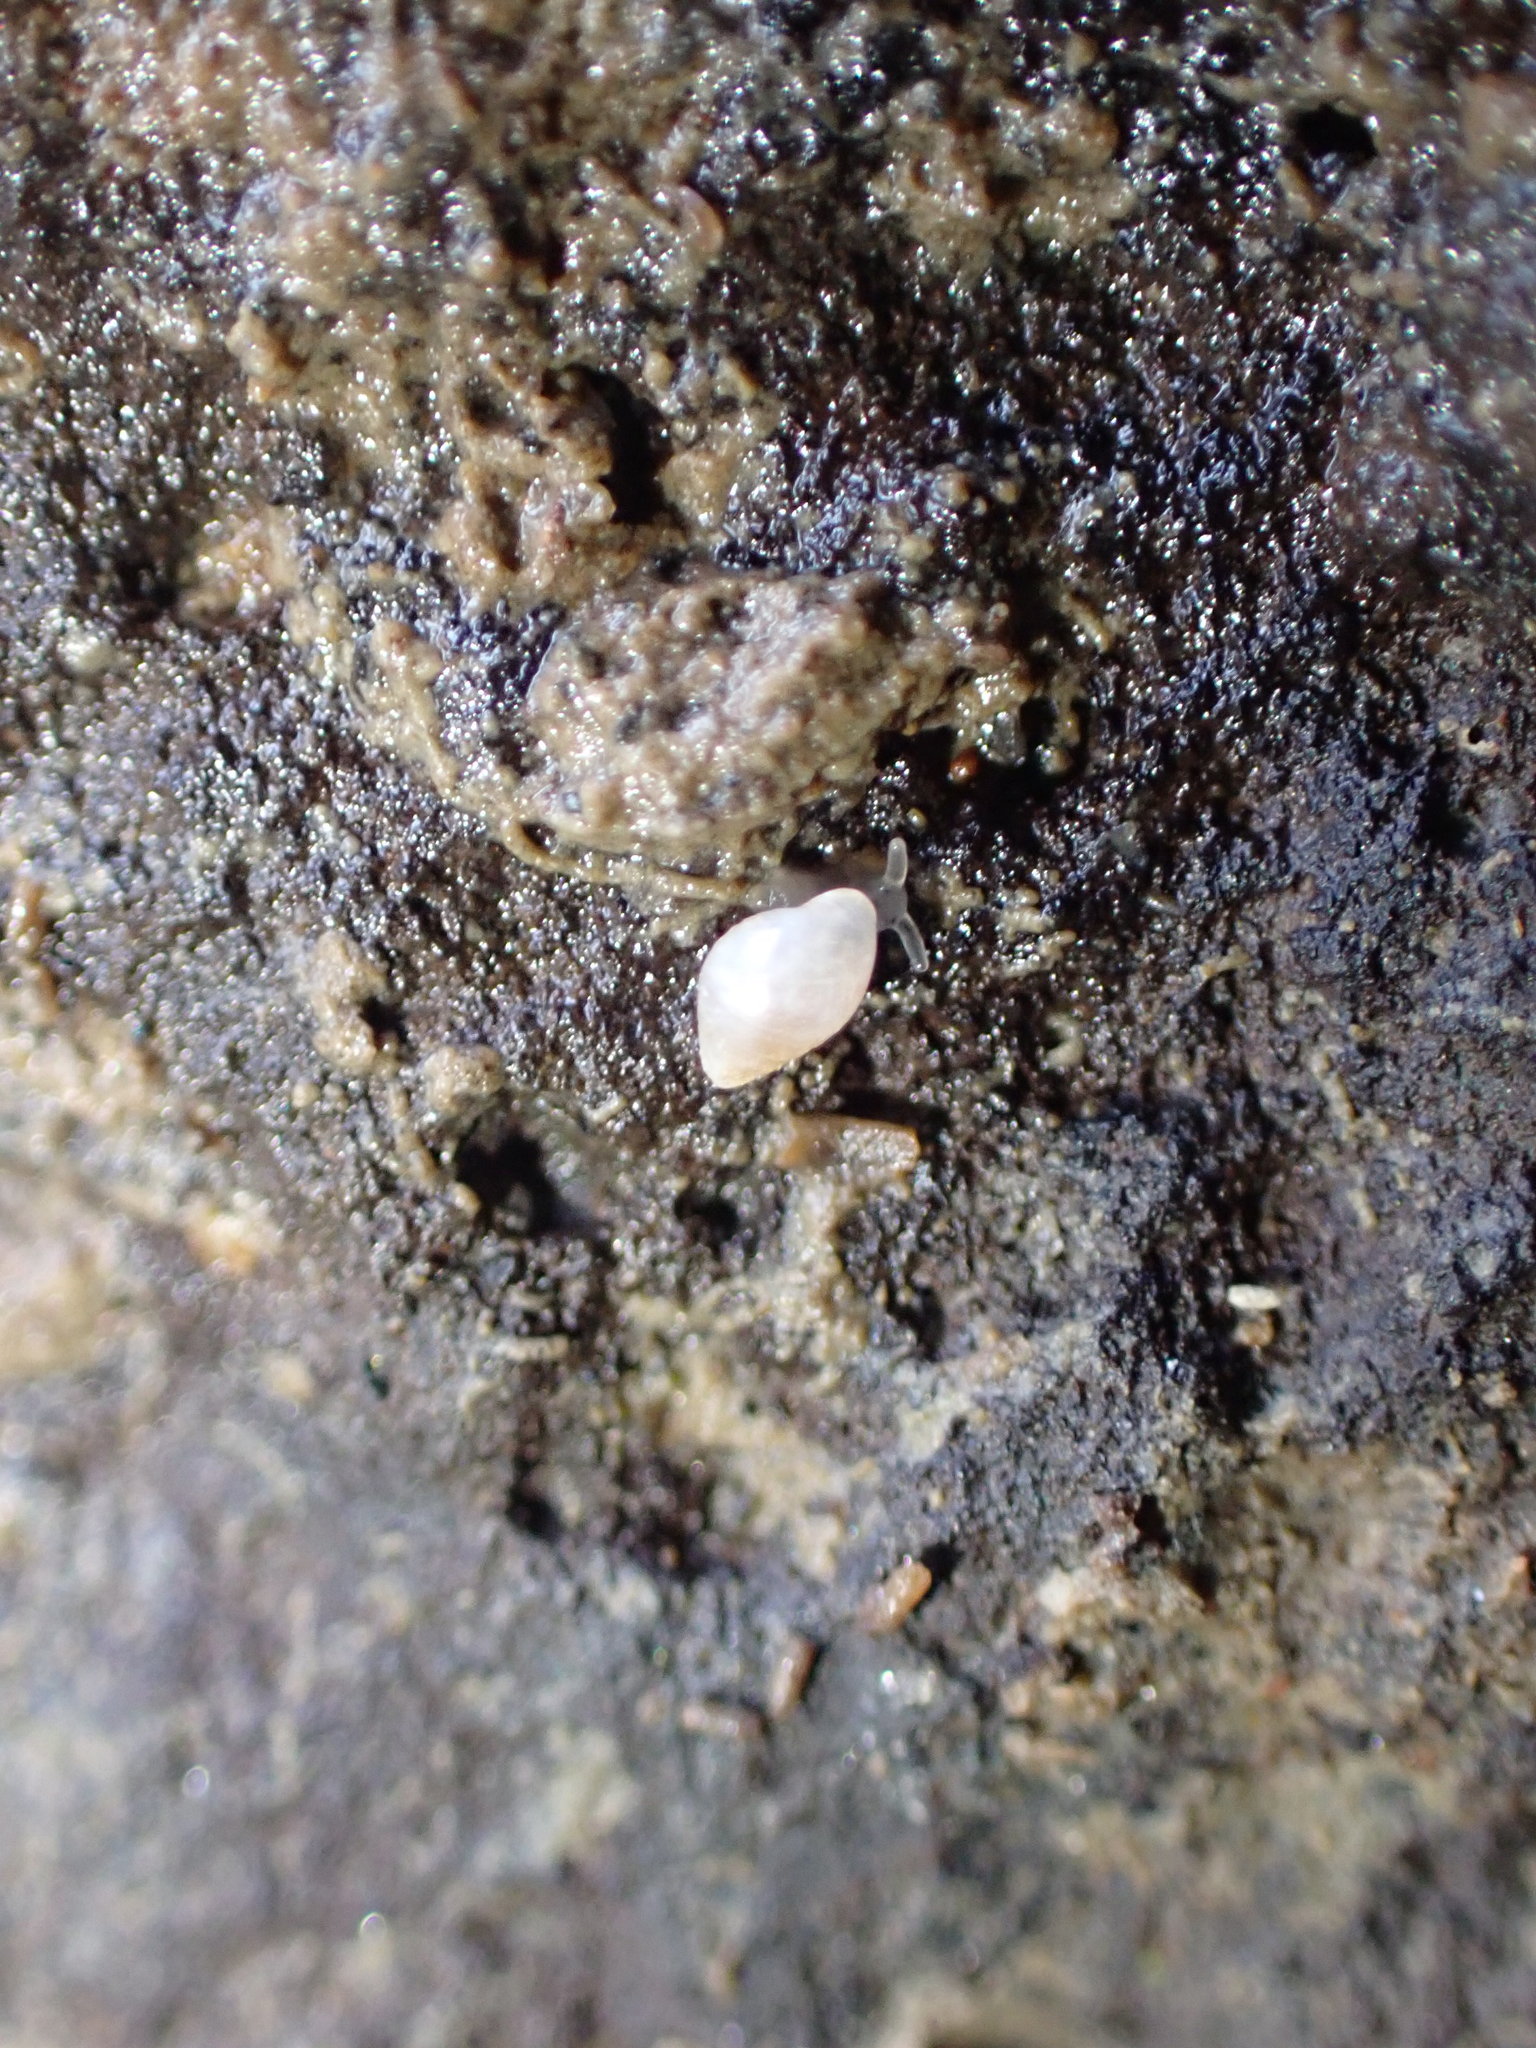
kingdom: Animalia
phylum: Mollusca
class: Gastropoda
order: Ellobiida
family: Ellobiidae
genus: Leuconopsis
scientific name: Leuconopsis obsoleta
